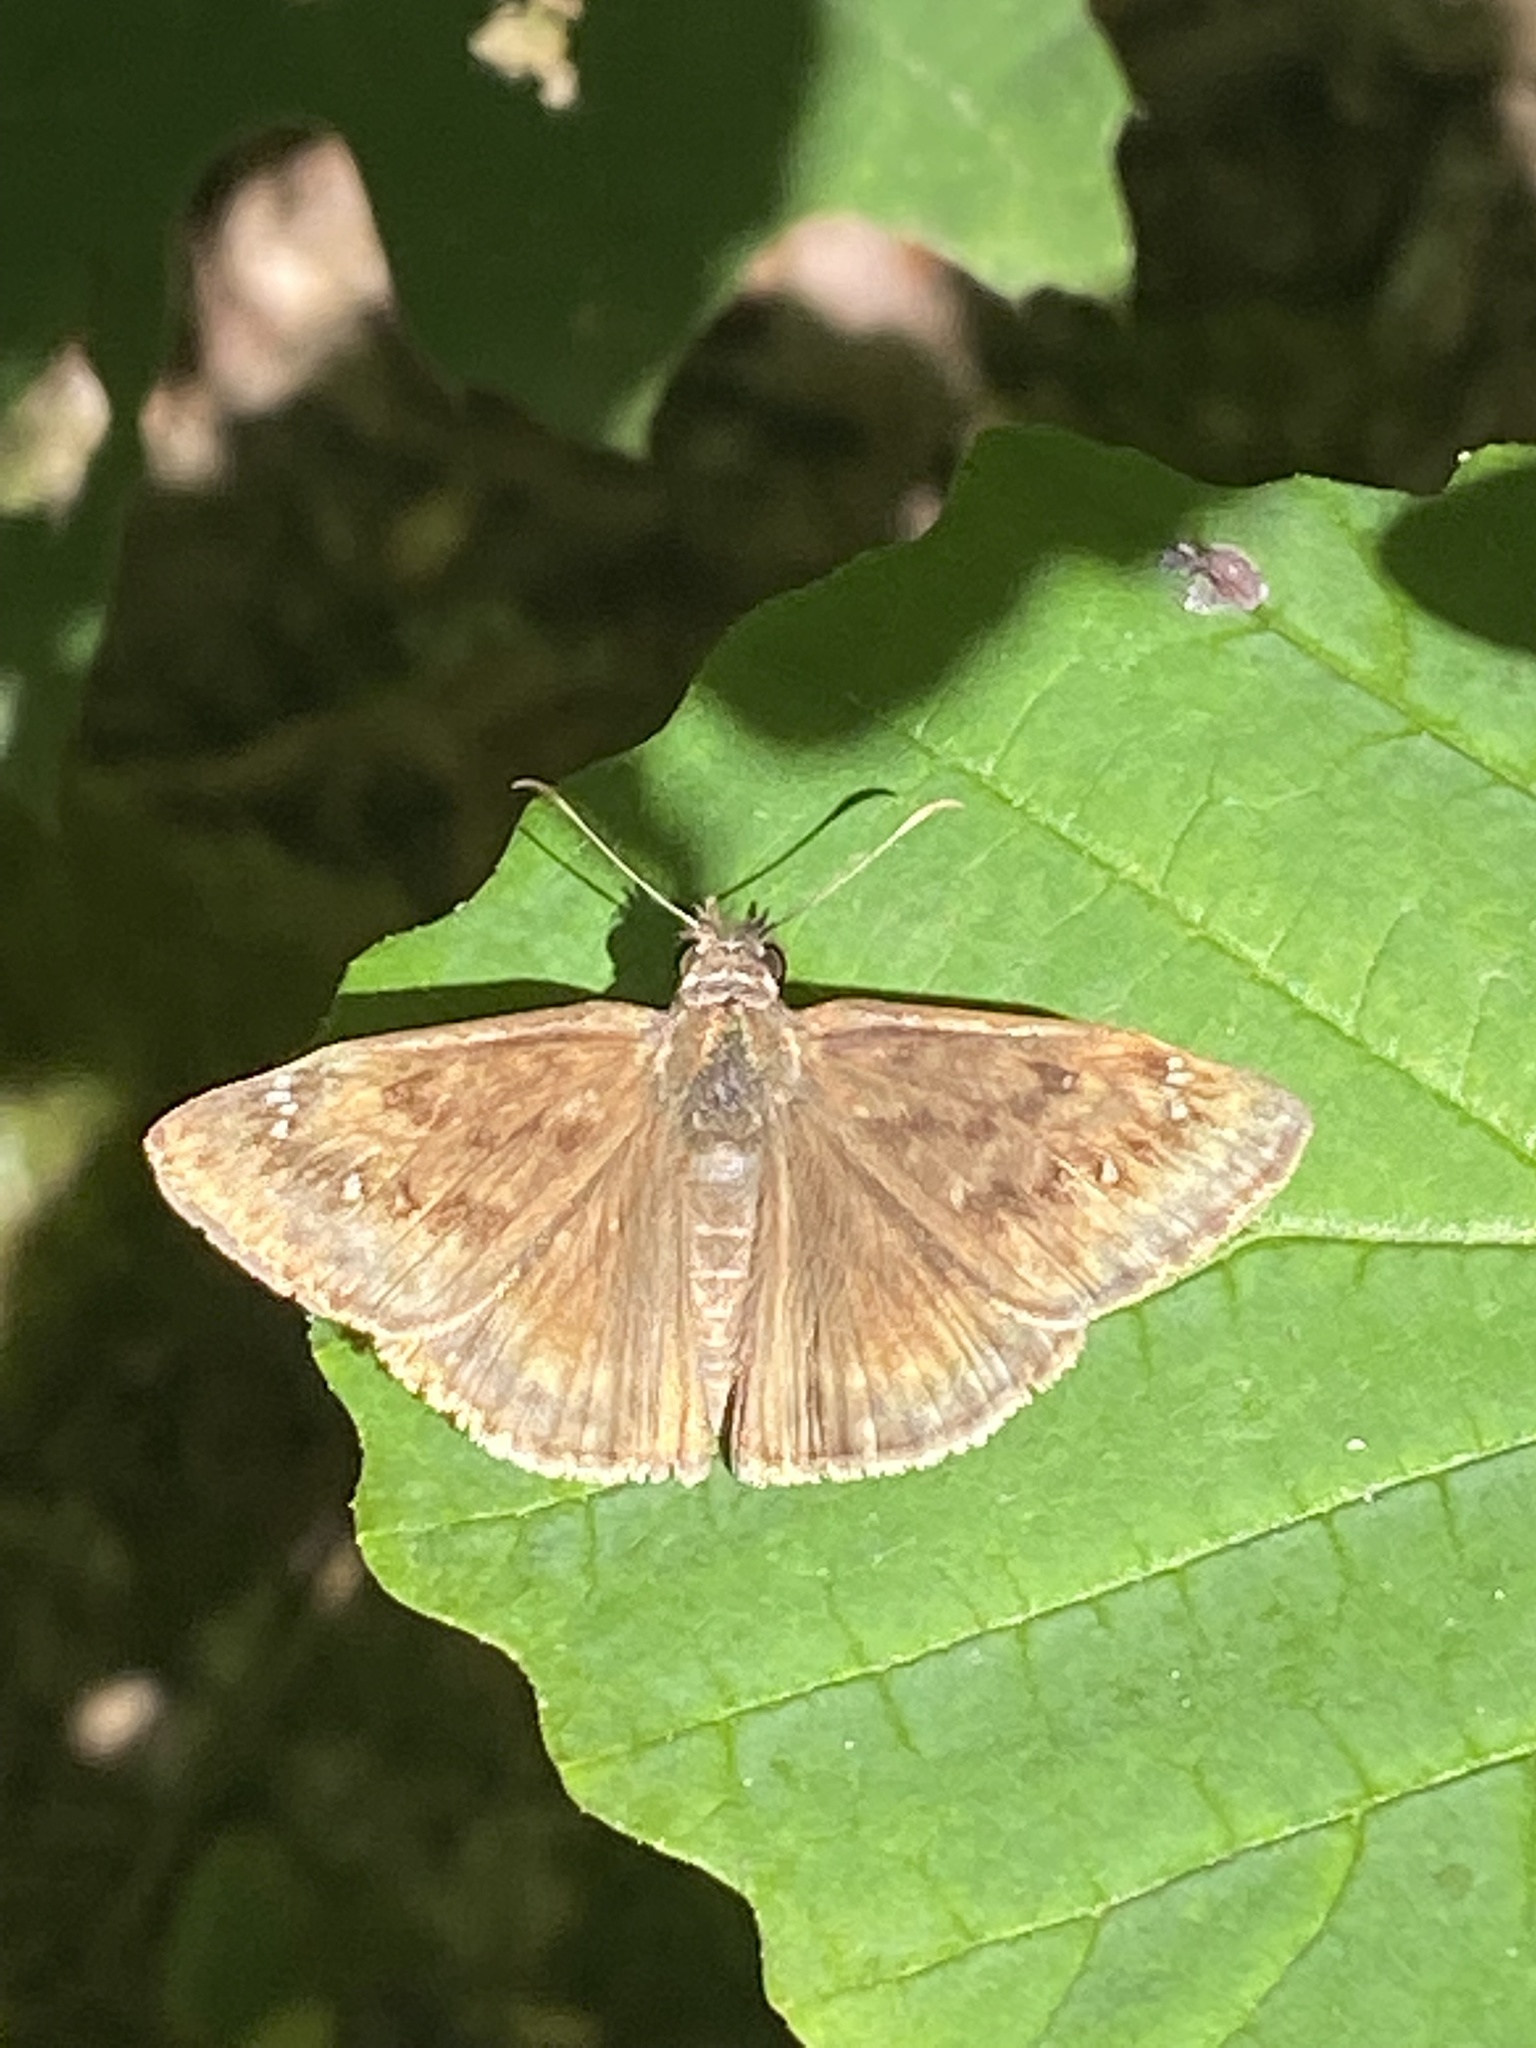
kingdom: Animalia
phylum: Arthropoda
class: Insecta
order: Lepidoptera
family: Hesperiidae
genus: Erynnis
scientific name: Erynnis horatius
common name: Horace's duskywing
